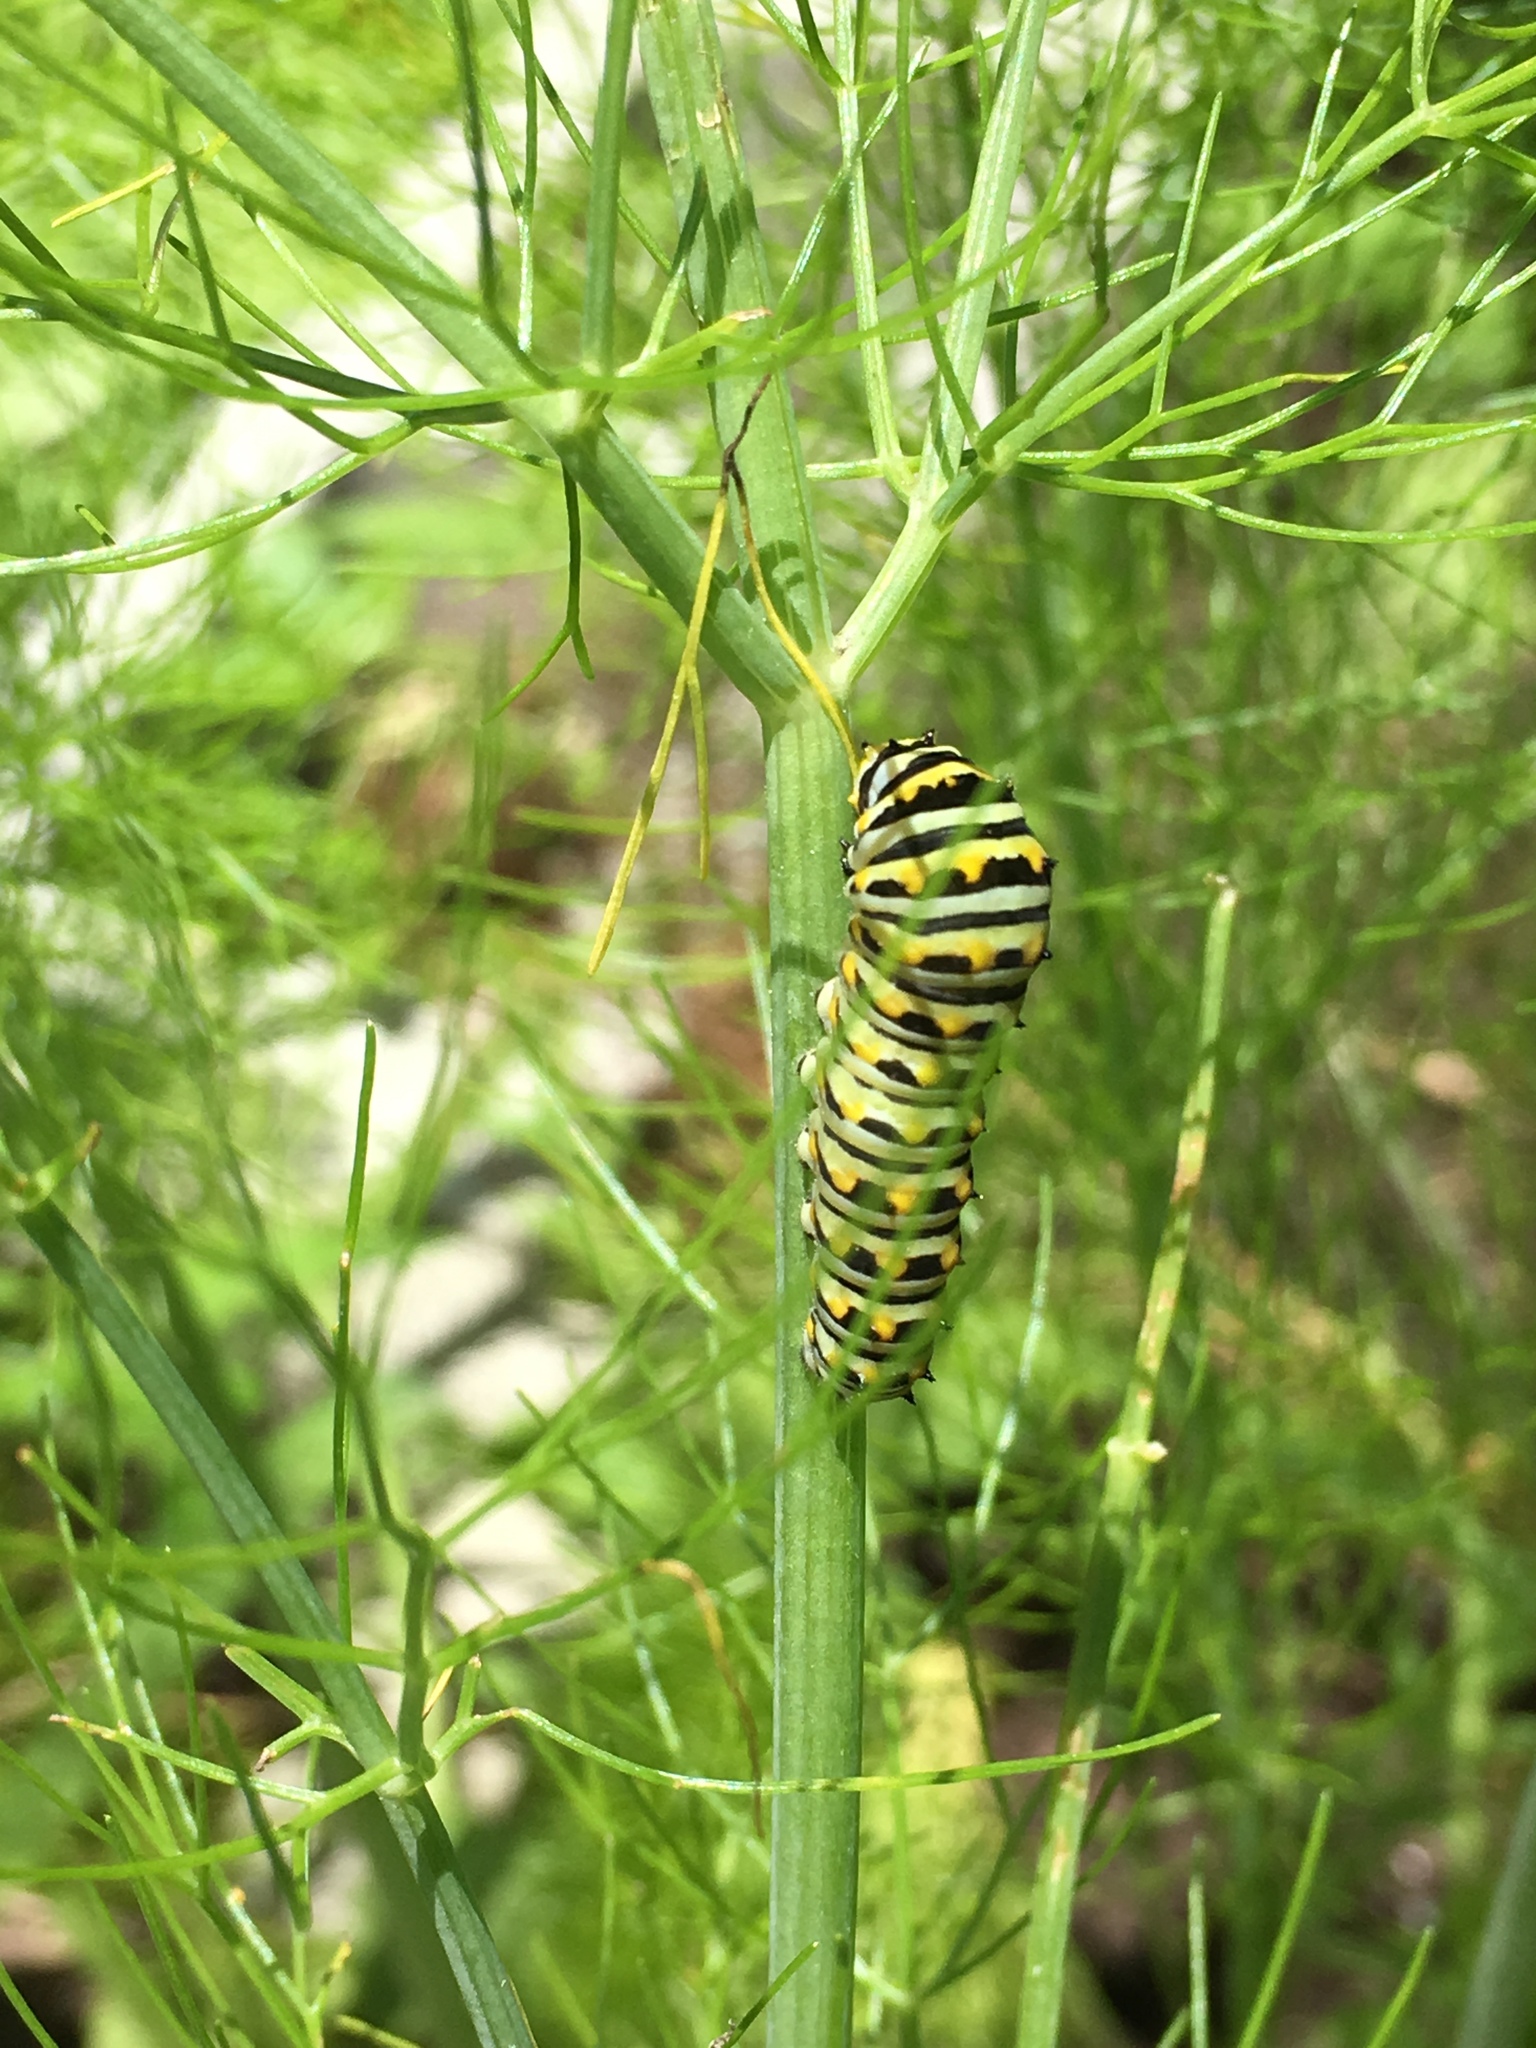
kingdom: Animalia
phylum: Arthropoda
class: Insecta
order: Lepidoptera
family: Papilionidae
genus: Papilio
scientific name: Papilio polyxenes
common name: Black swallowtail
